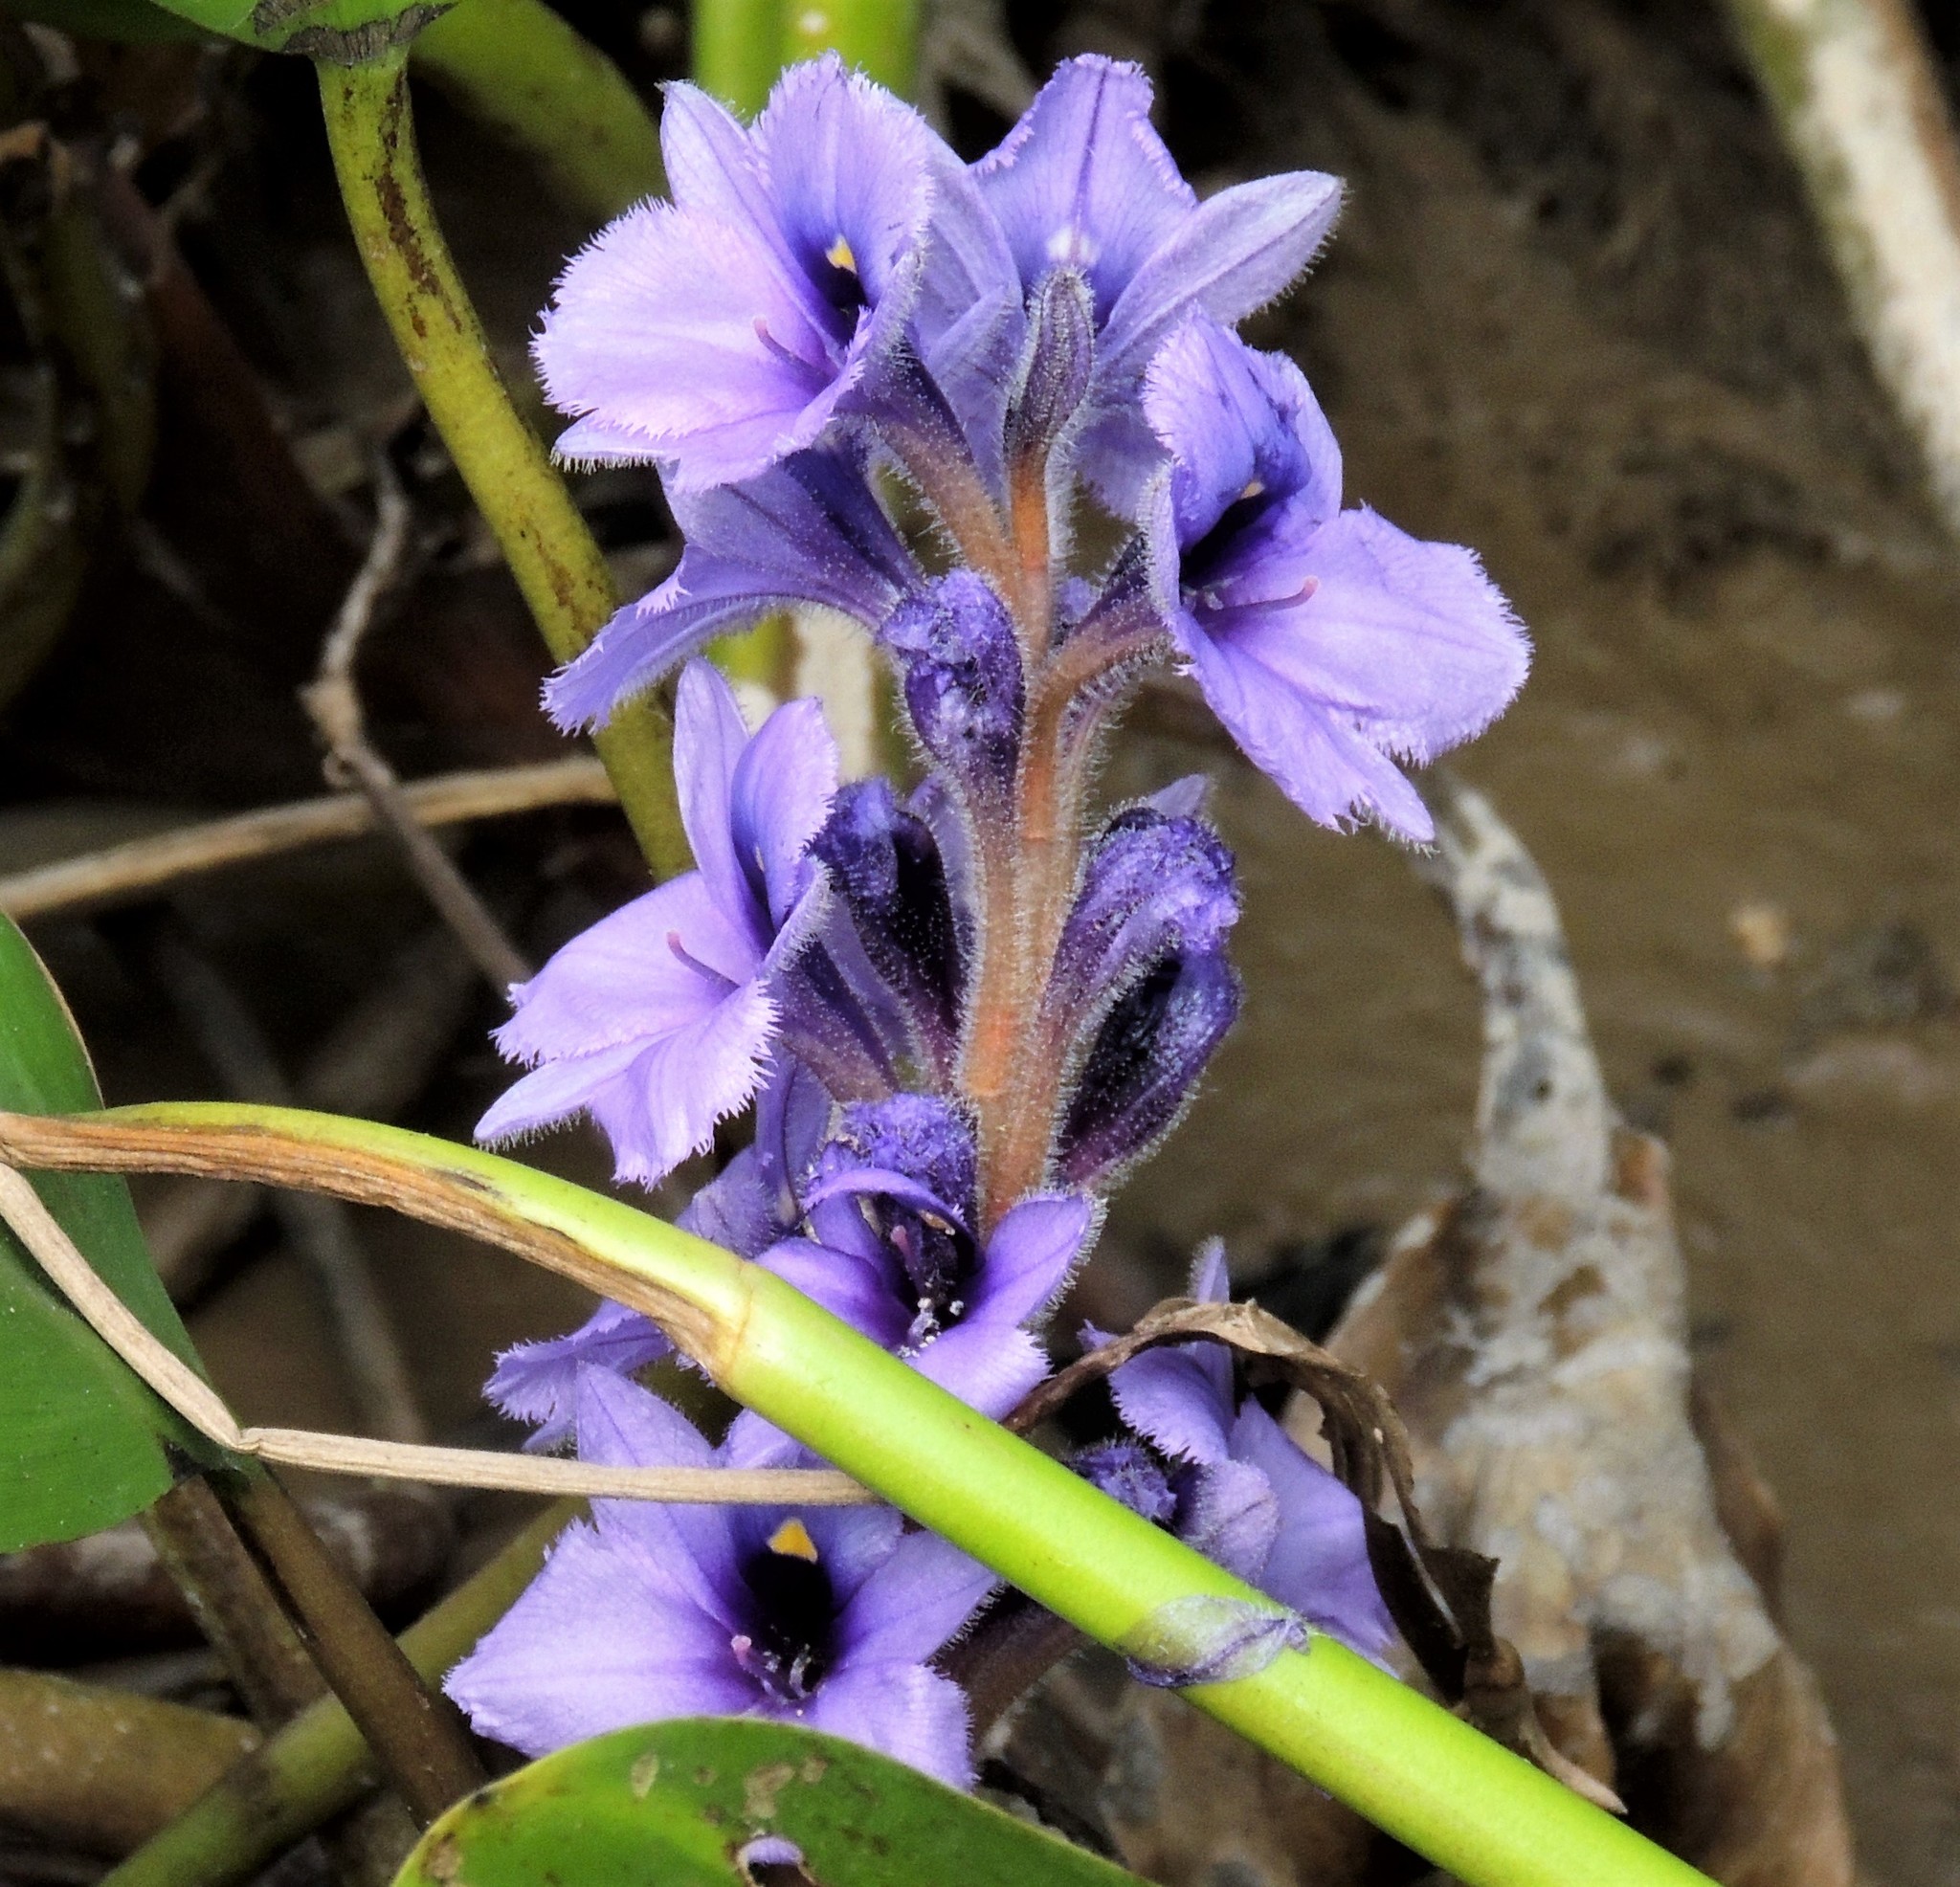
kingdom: Plantae
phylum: Tracheophyta
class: Liliopsida
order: Commelinales
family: Pontederiaceae
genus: Pontederia
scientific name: Pontederia azurea
